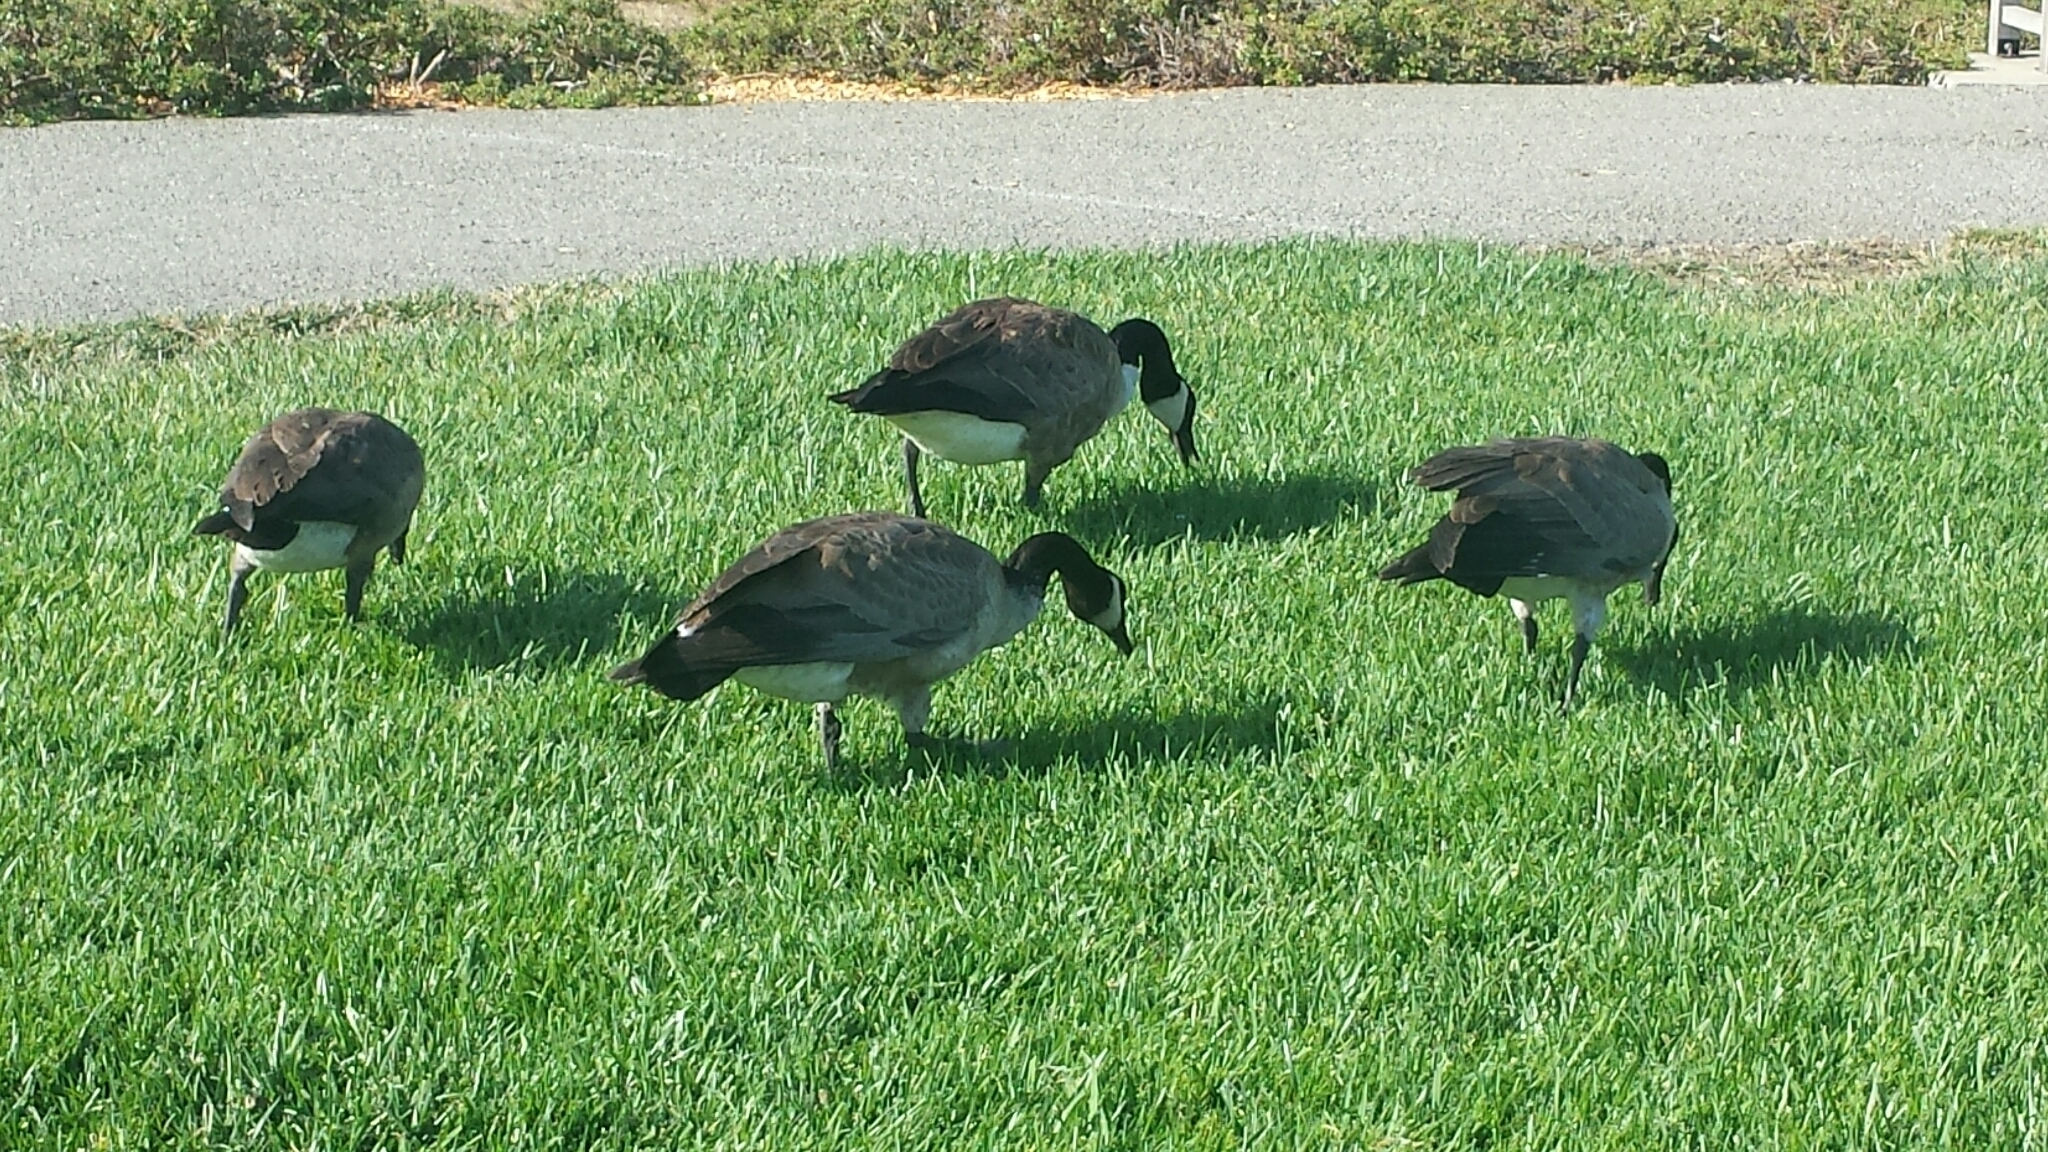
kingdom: Animalia
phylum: Chordata
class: Aves
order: Anseriformes
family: Anatidae
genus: Branta
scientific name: Branta canadensis
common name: Canada goose
